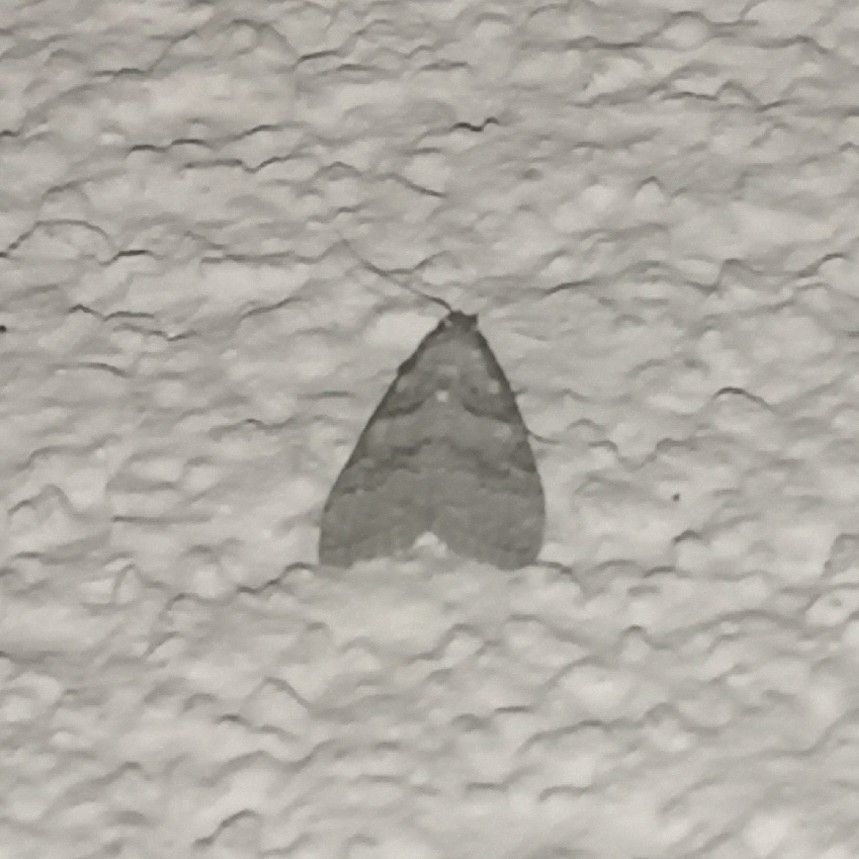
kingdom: Animalia
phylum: Arthropoda
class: Insecta
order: Lepidoptera
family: Nolidae
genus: Nola
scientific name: Nola harouni
